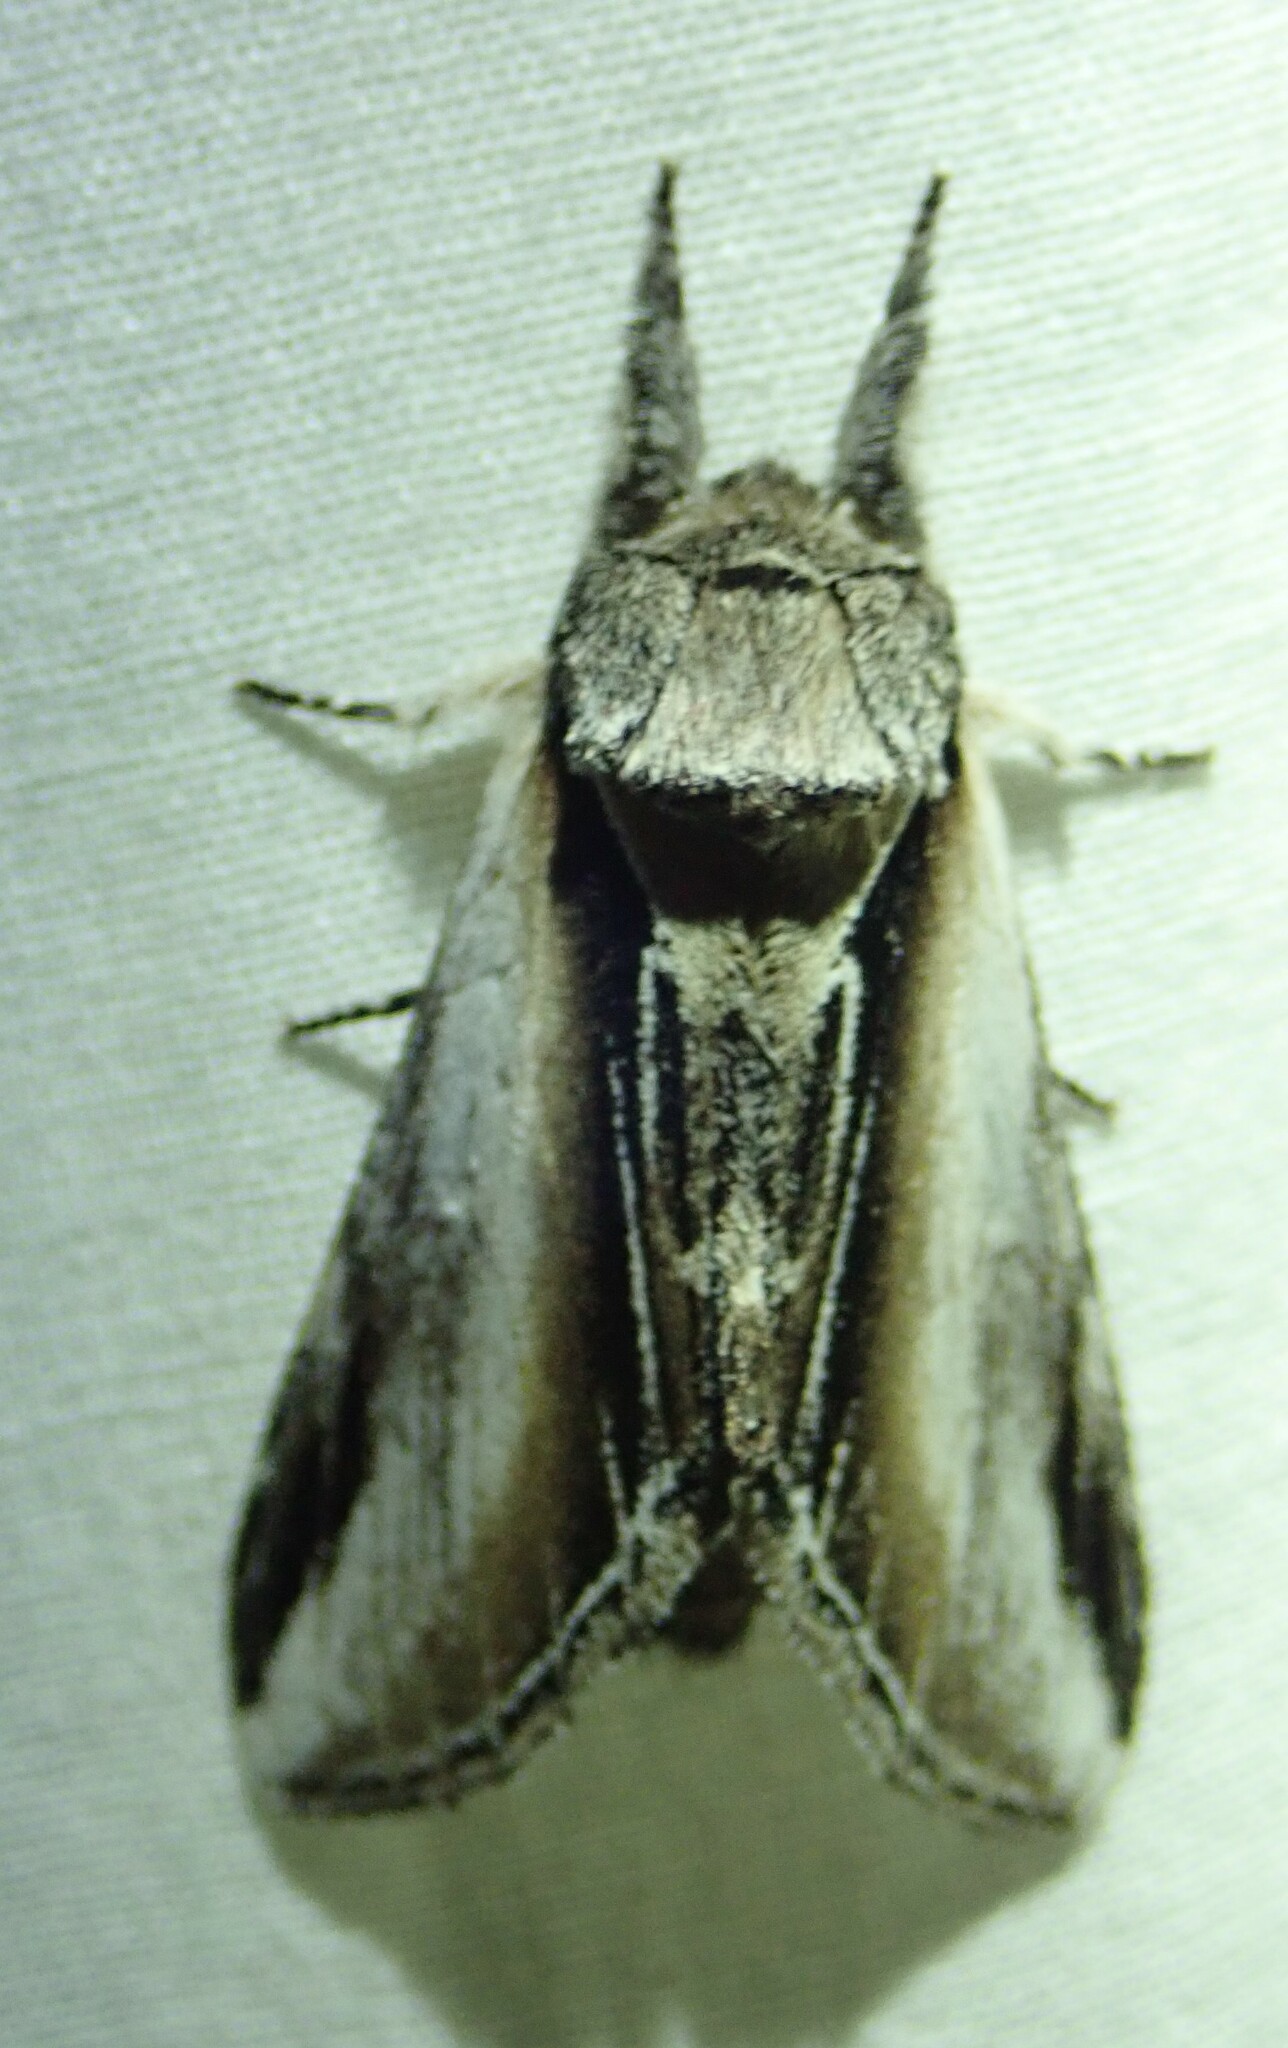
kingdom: Animalia
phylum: Arthropoda
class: Insecta
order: Lepidoptera
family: Notodontidae
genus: Pheosia
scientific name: Pheosia rimosa
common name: Black-rimmed prominent
